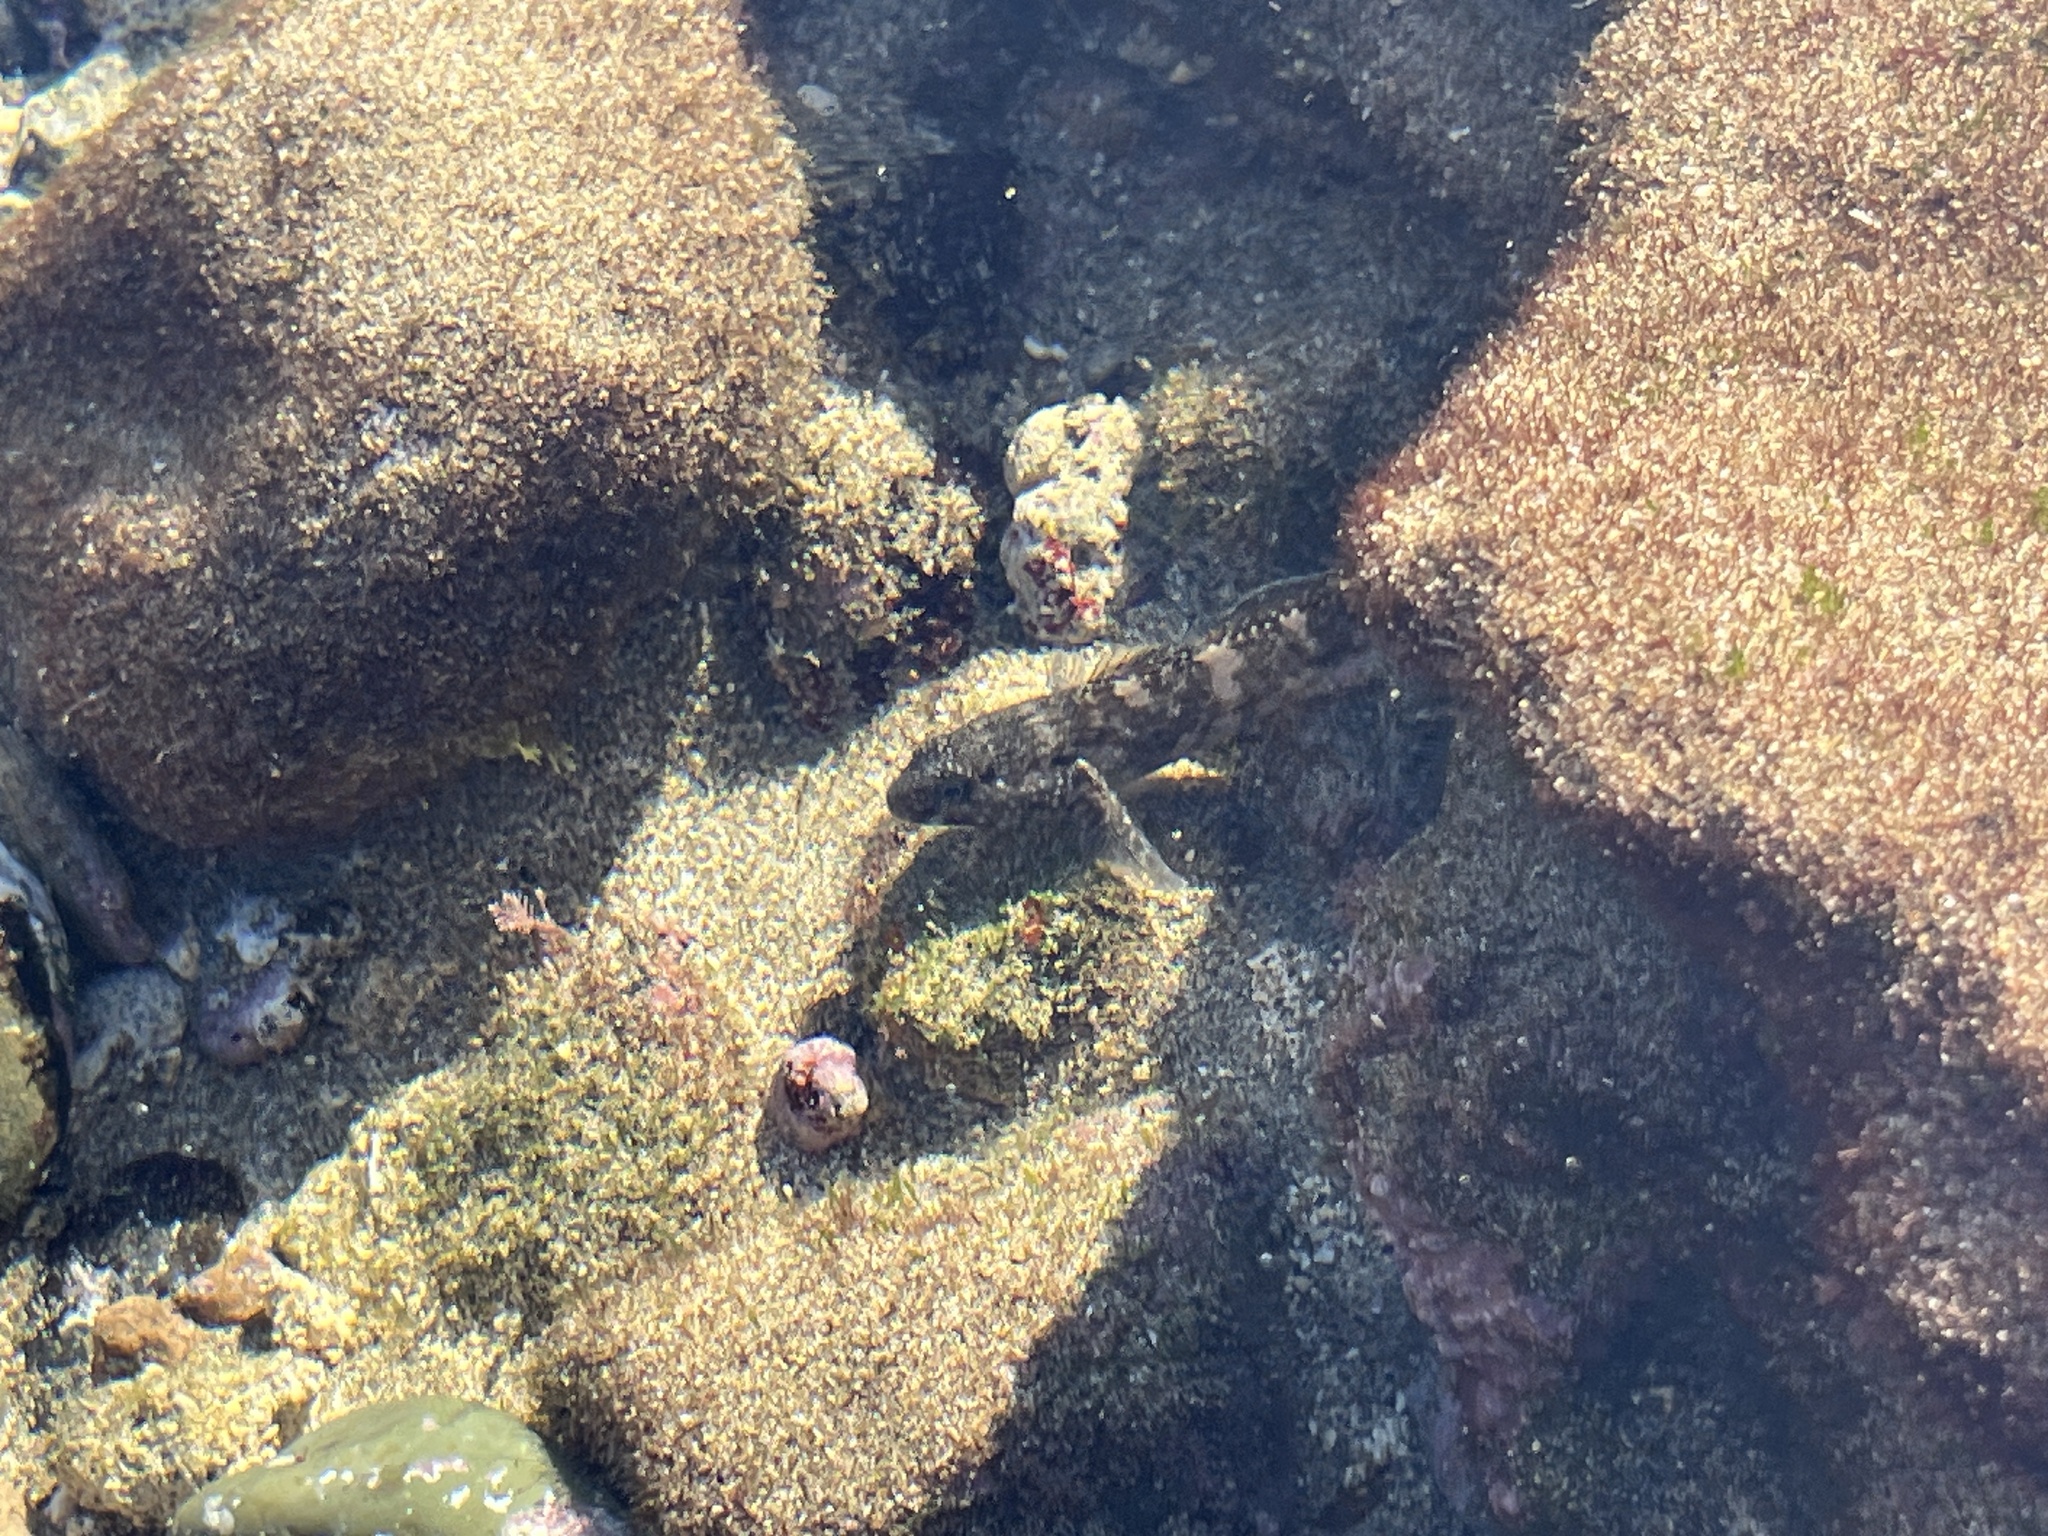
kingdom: Animalia
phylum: Chordata
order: Perciformes
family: Gobiidae
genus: Mauligobius
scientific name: Mauligobius maderensis
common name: Rock goby
